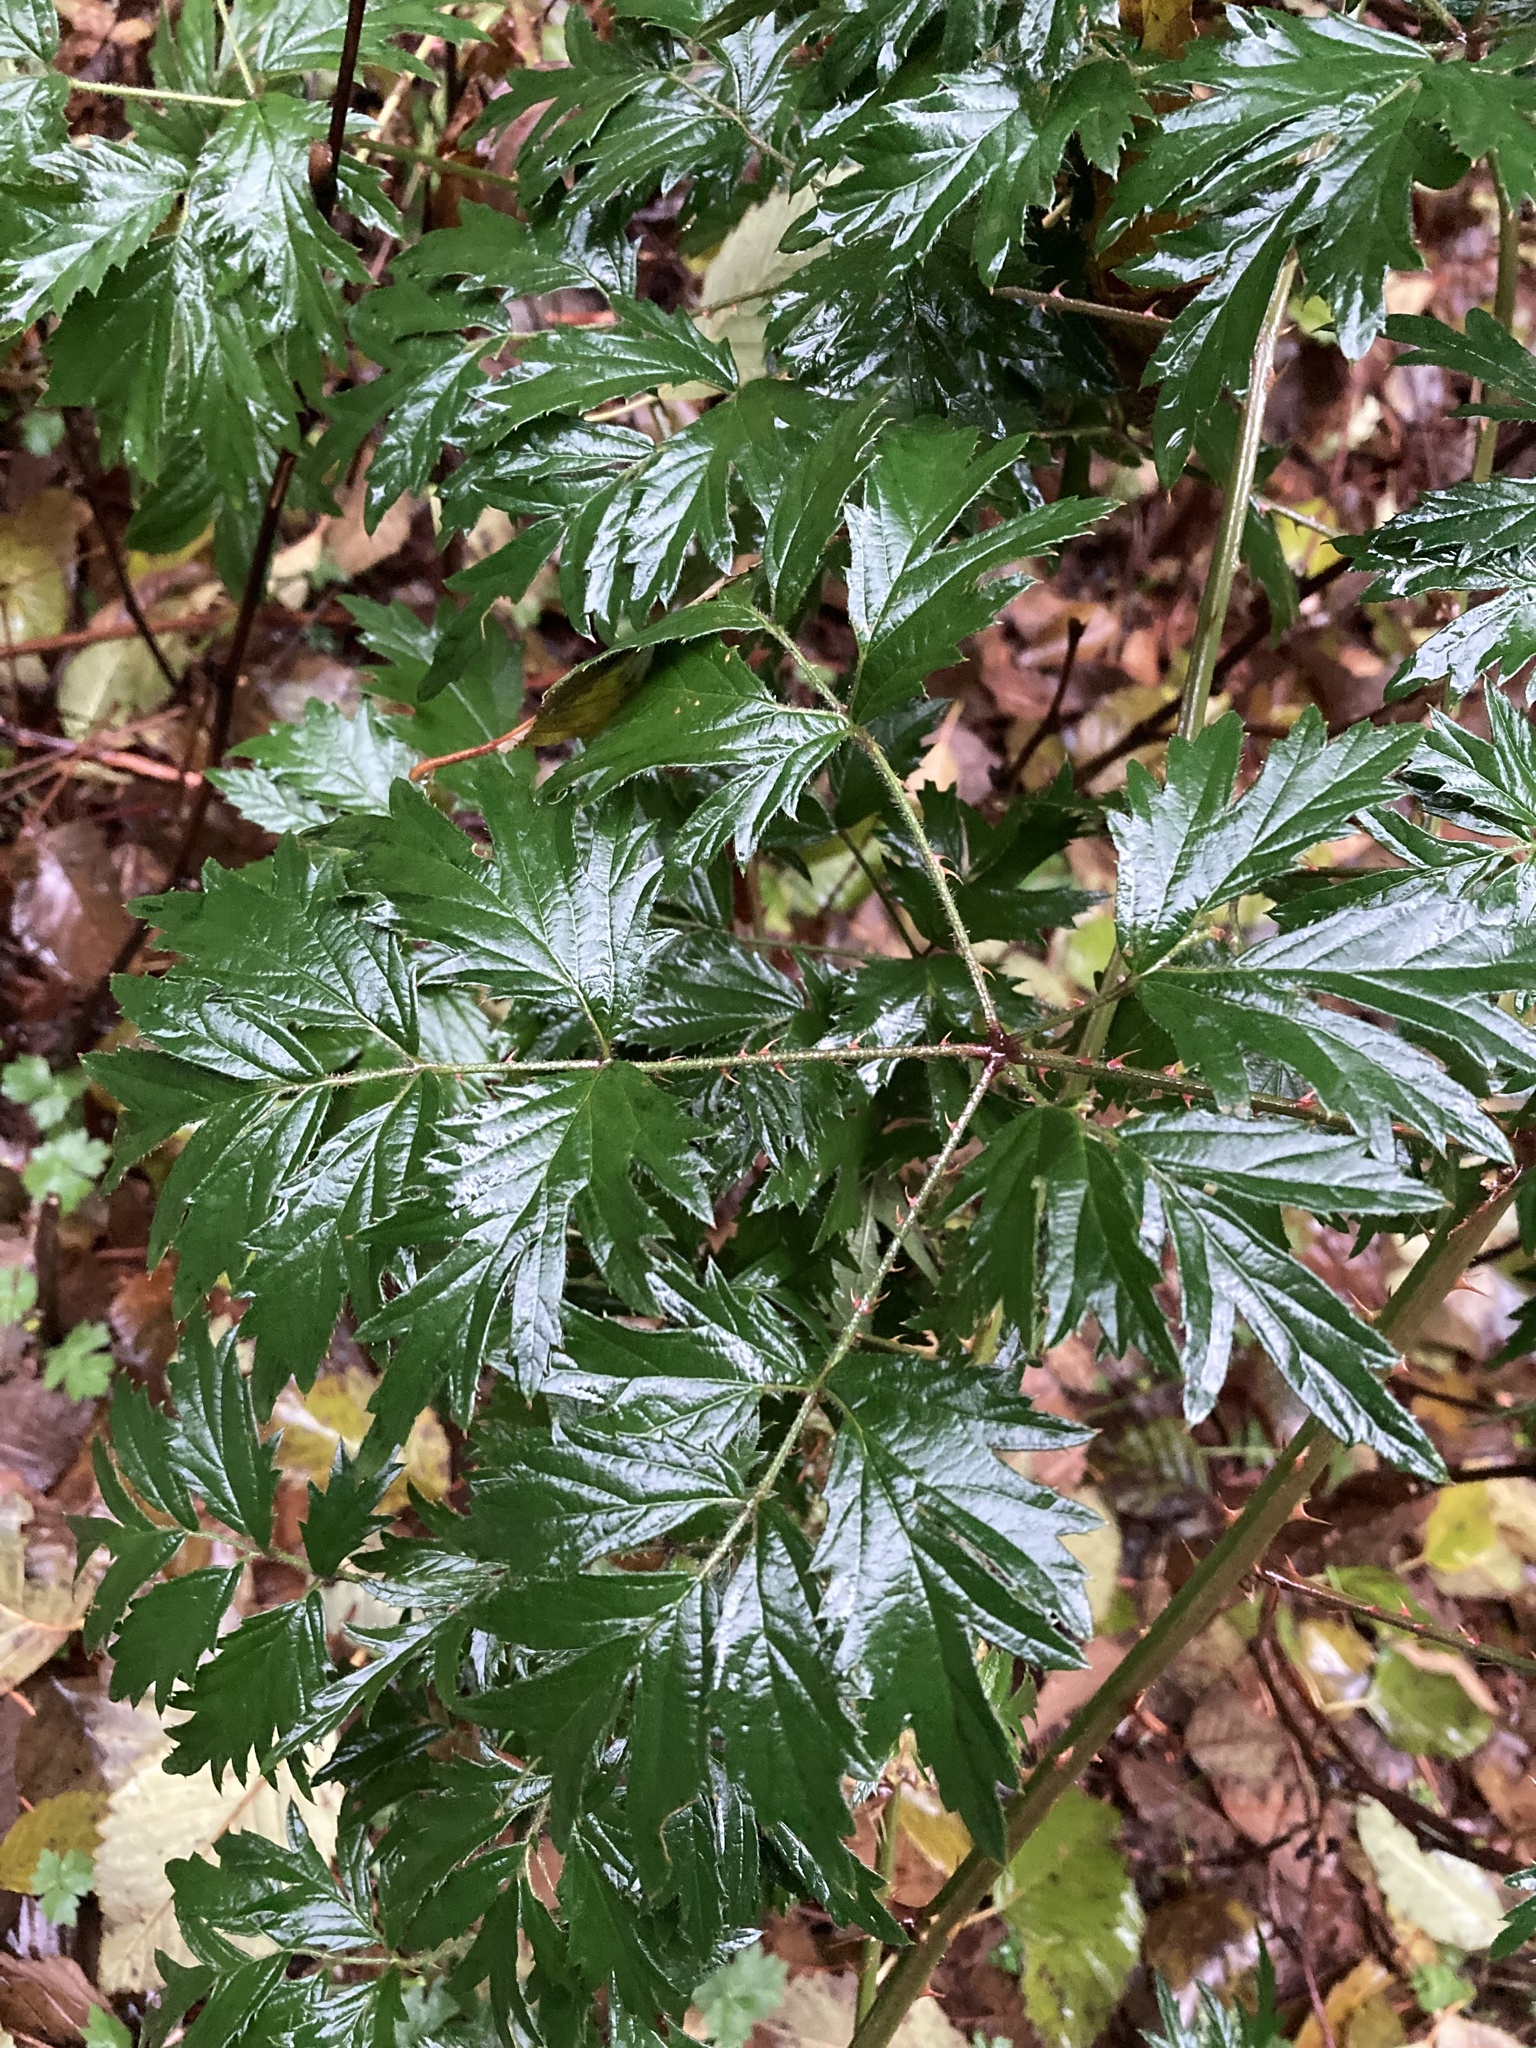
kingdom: Plantae
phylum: Tracheophyta
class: Magnoliopsida
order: Rosales
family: Rosaceae
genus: Rubus
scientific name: Rubus laciniatus
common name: Evergreen blackberry
